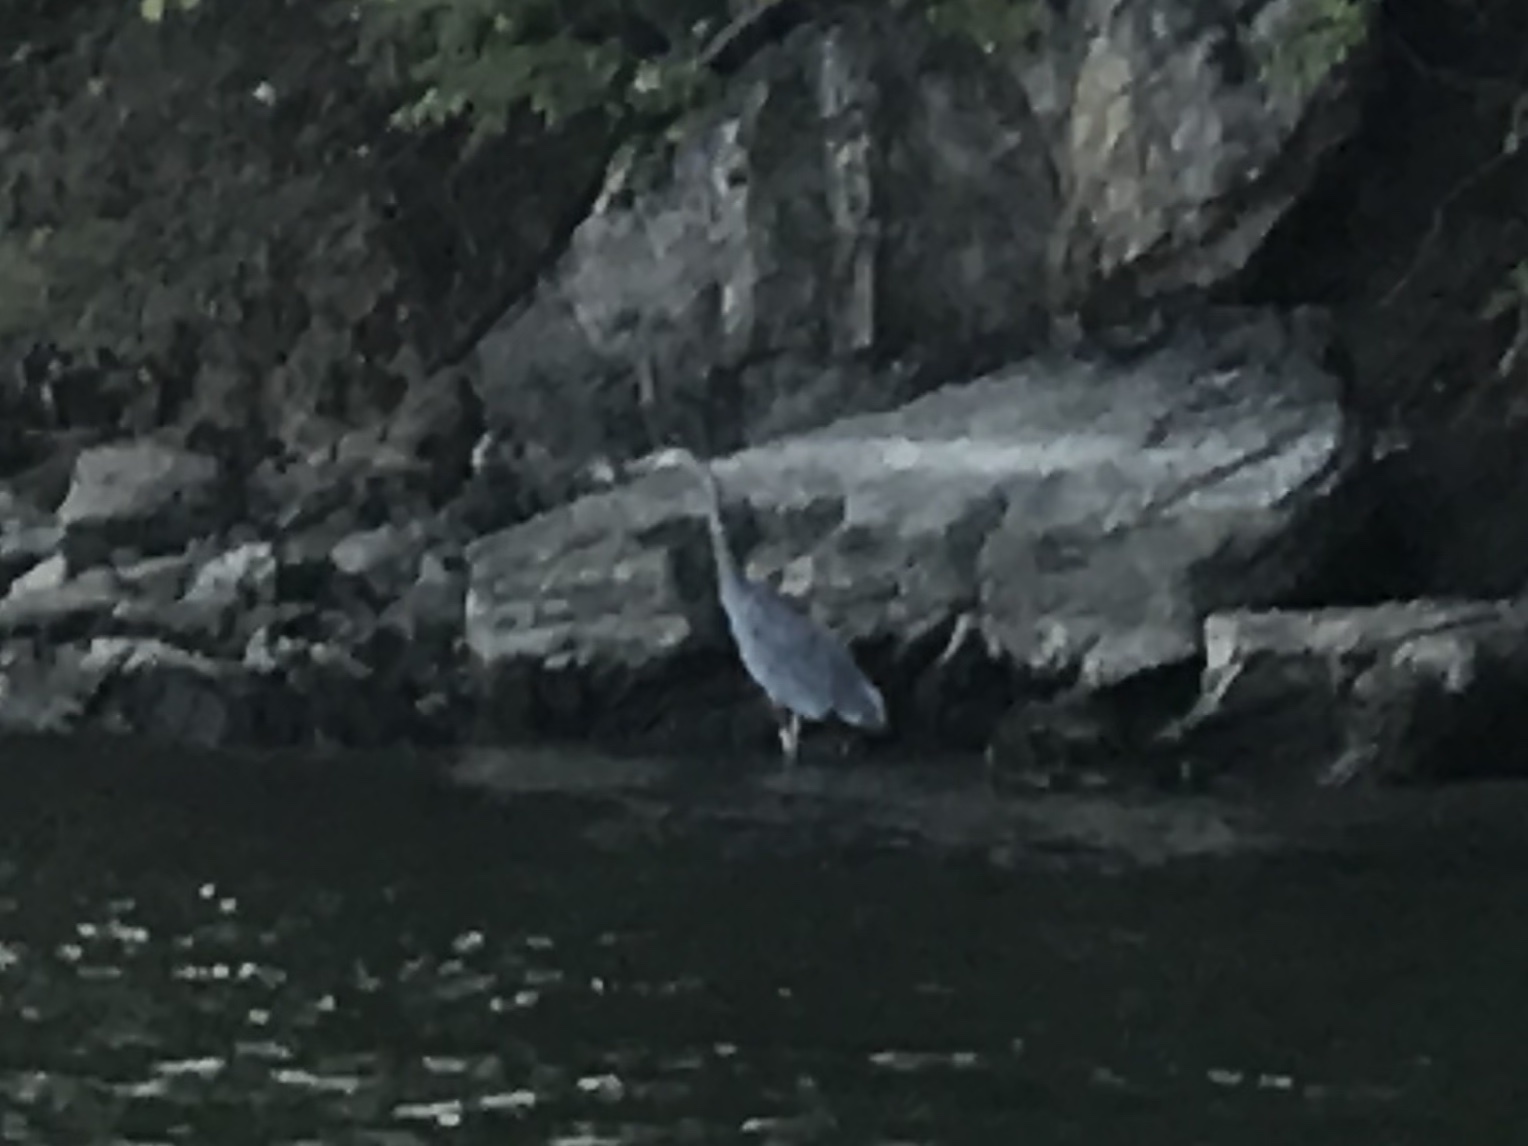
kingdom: Animalia
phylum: Chordata
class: Aves
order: Pelecaniformes
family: Ardeidae
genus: Ardea
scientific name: Ardea herodias
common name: Great blue heron
